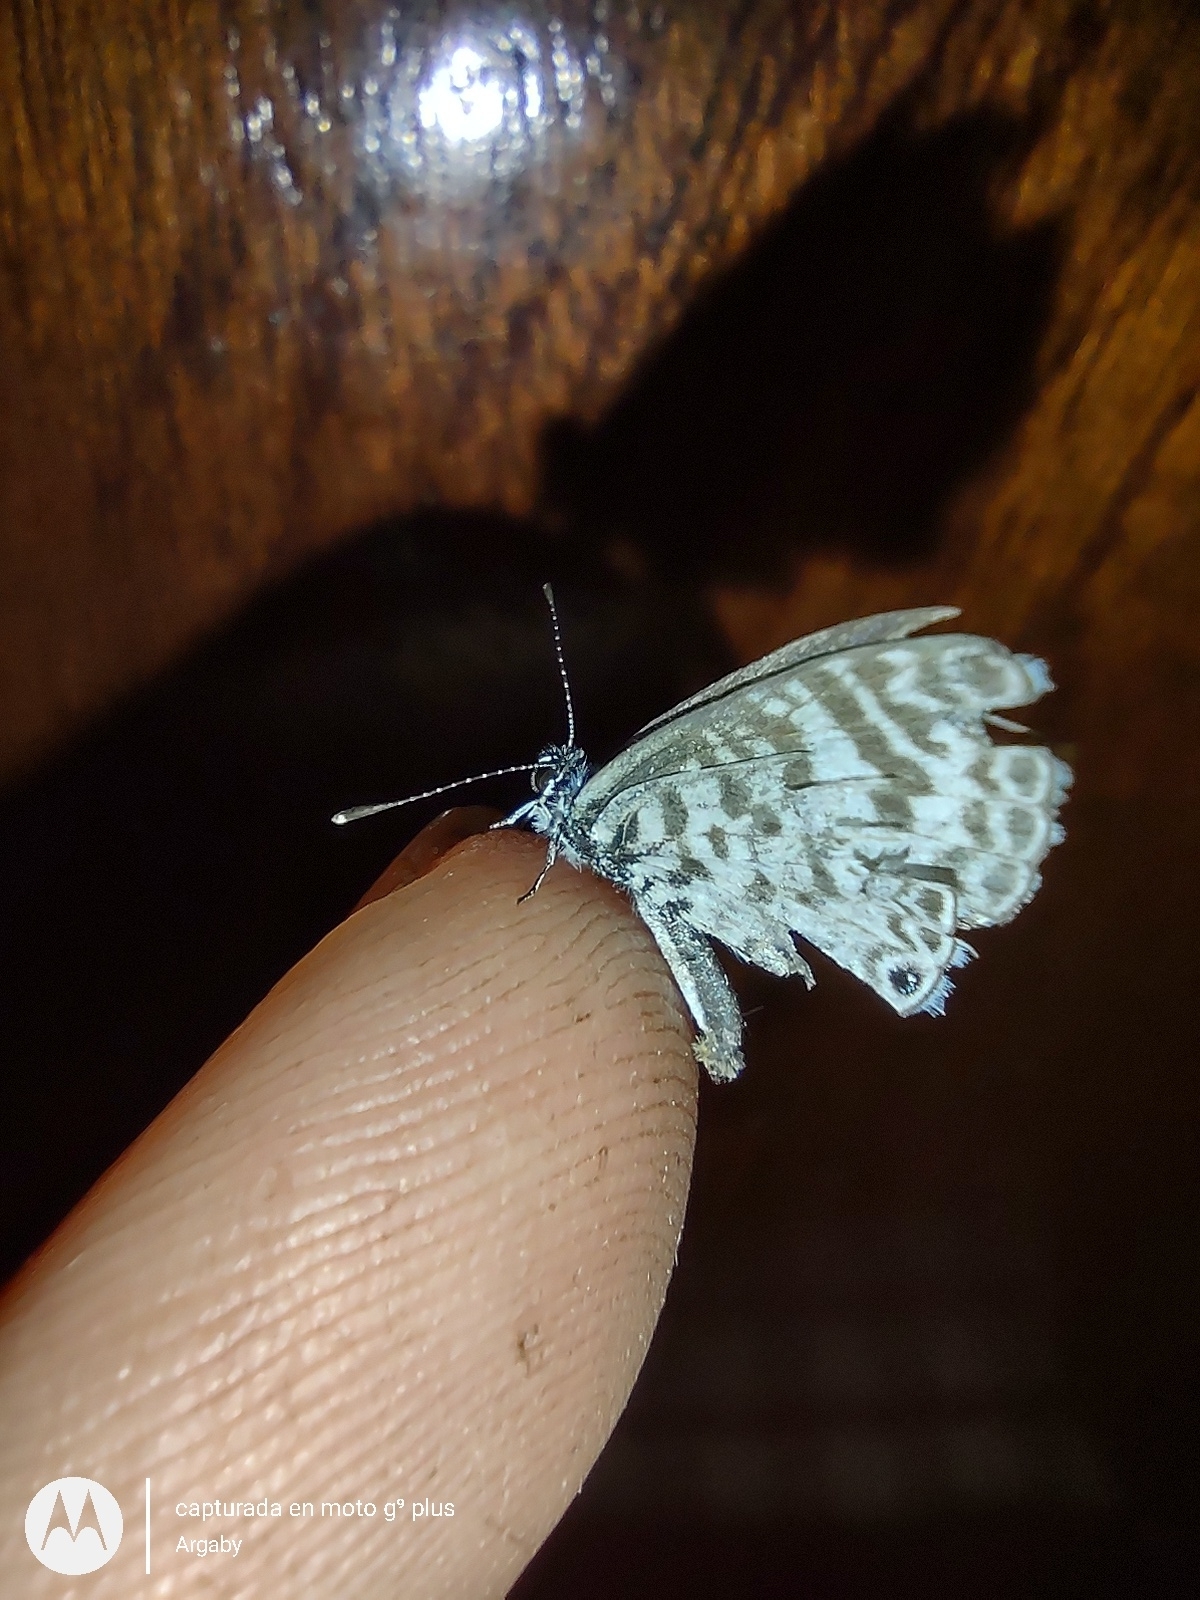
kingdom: Animalia
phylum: Arthropoda
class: Insecta
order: Lepidoptera
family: Lycaenidae
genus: Leptotes
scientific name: Leptotes cassius
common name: Cassius blue
